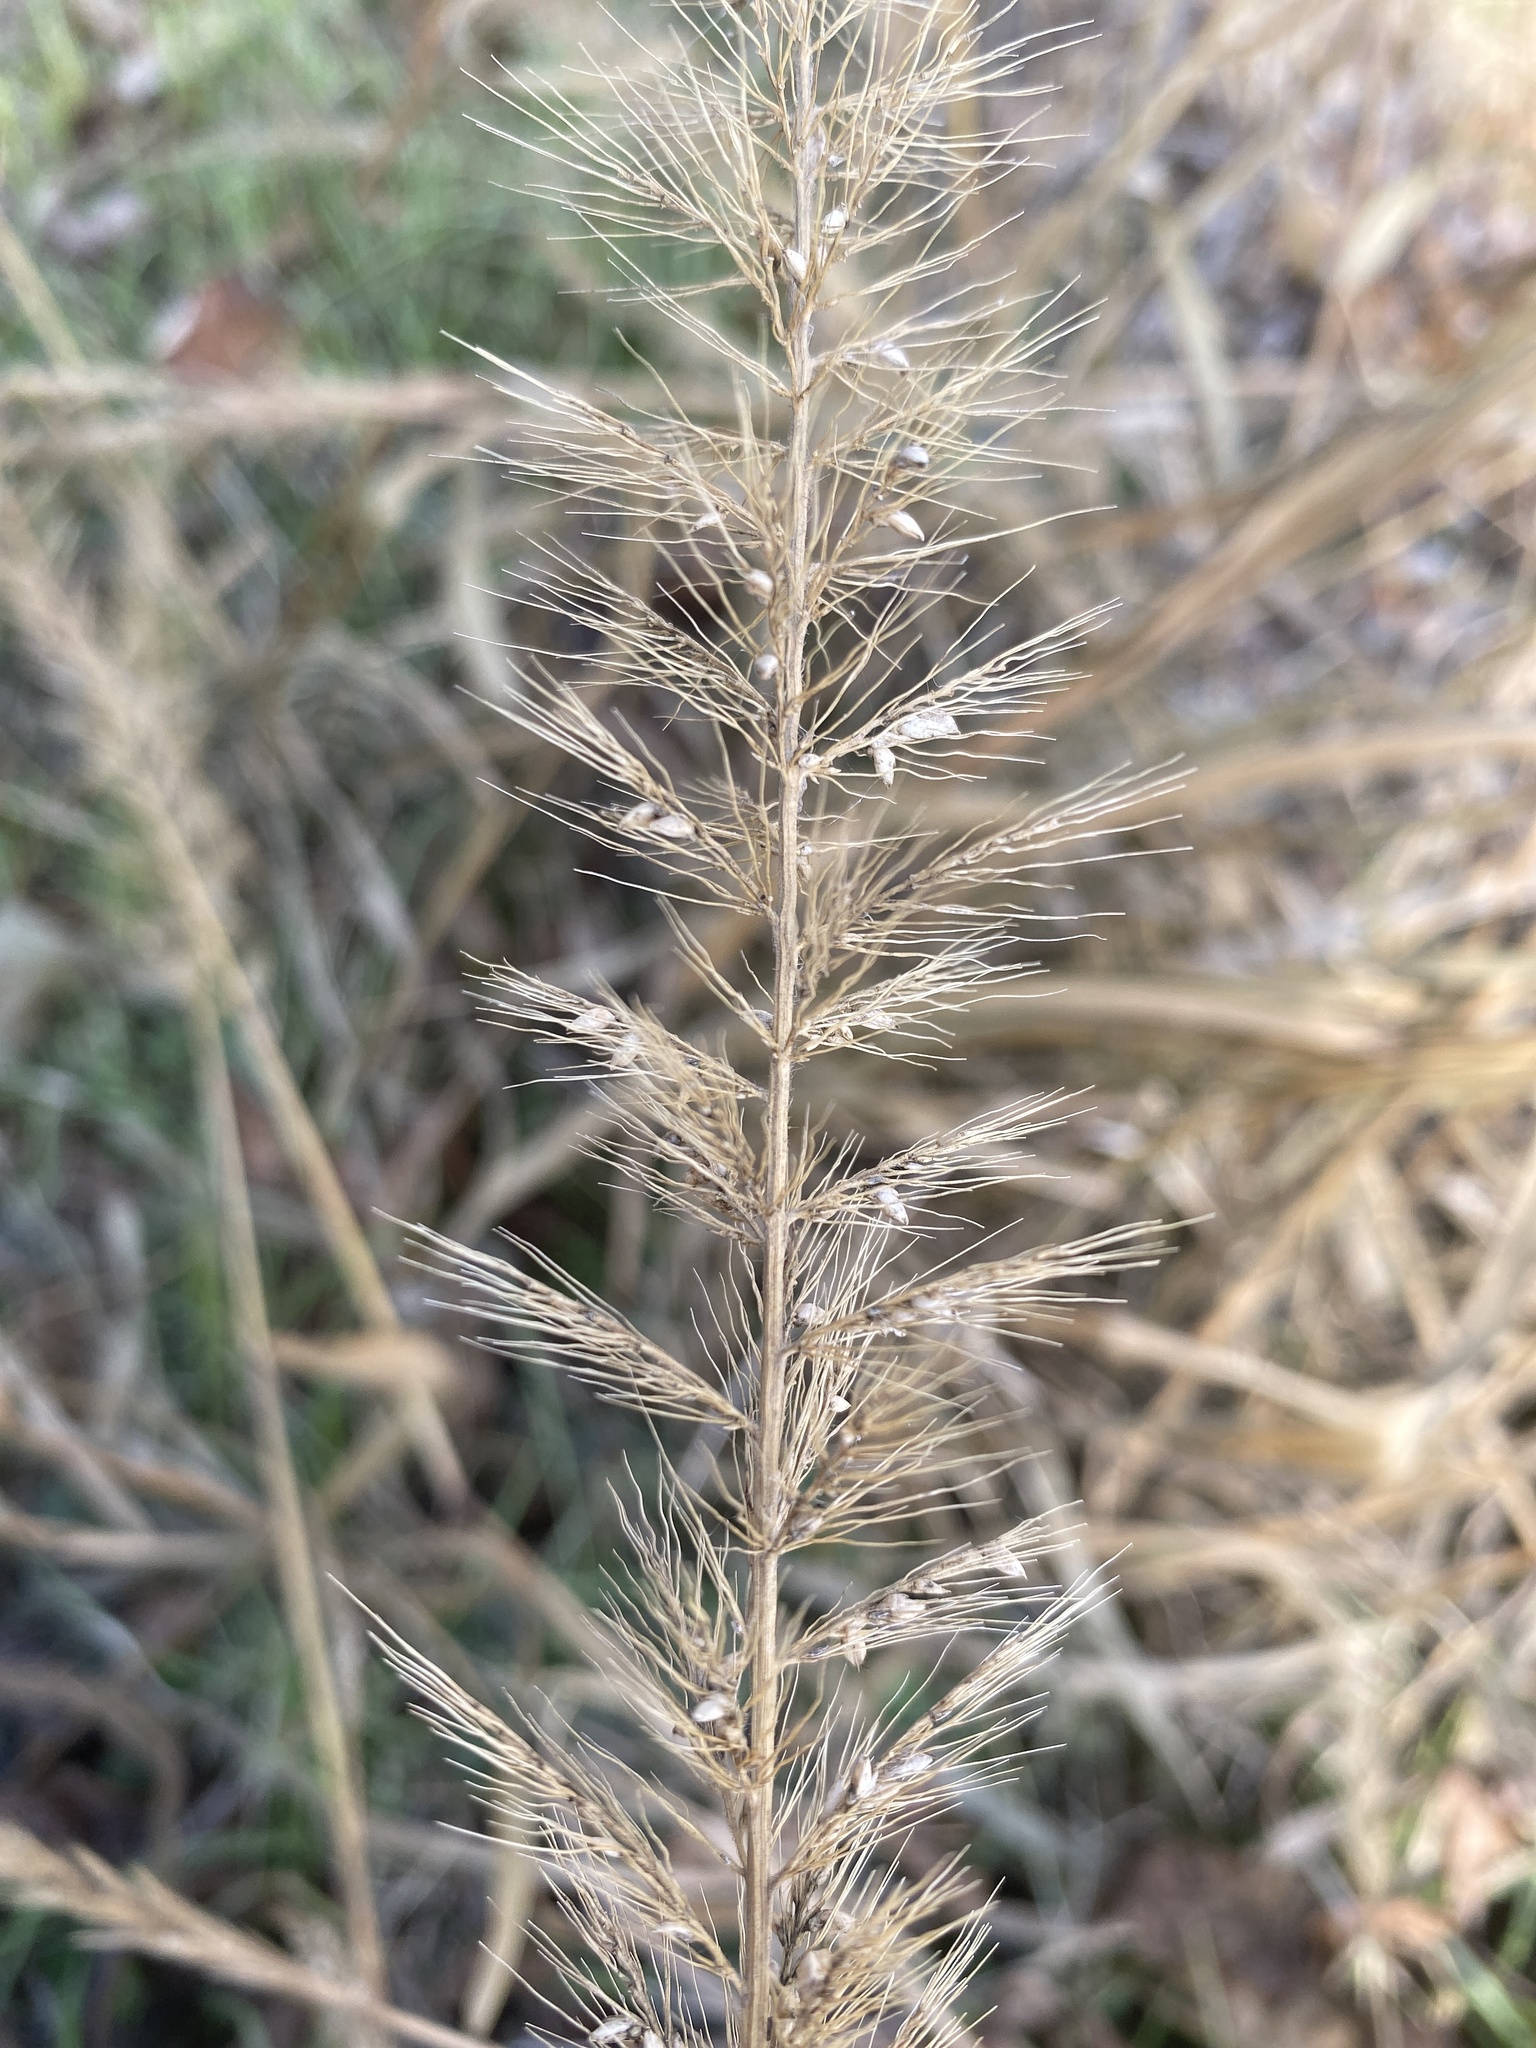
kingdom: Plantae
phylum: Tracheophyta
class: Liliopsida
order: Poales
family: Poaceae
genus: Setaria
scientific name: Setaria scheelei
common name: Southwestern bristle grass
